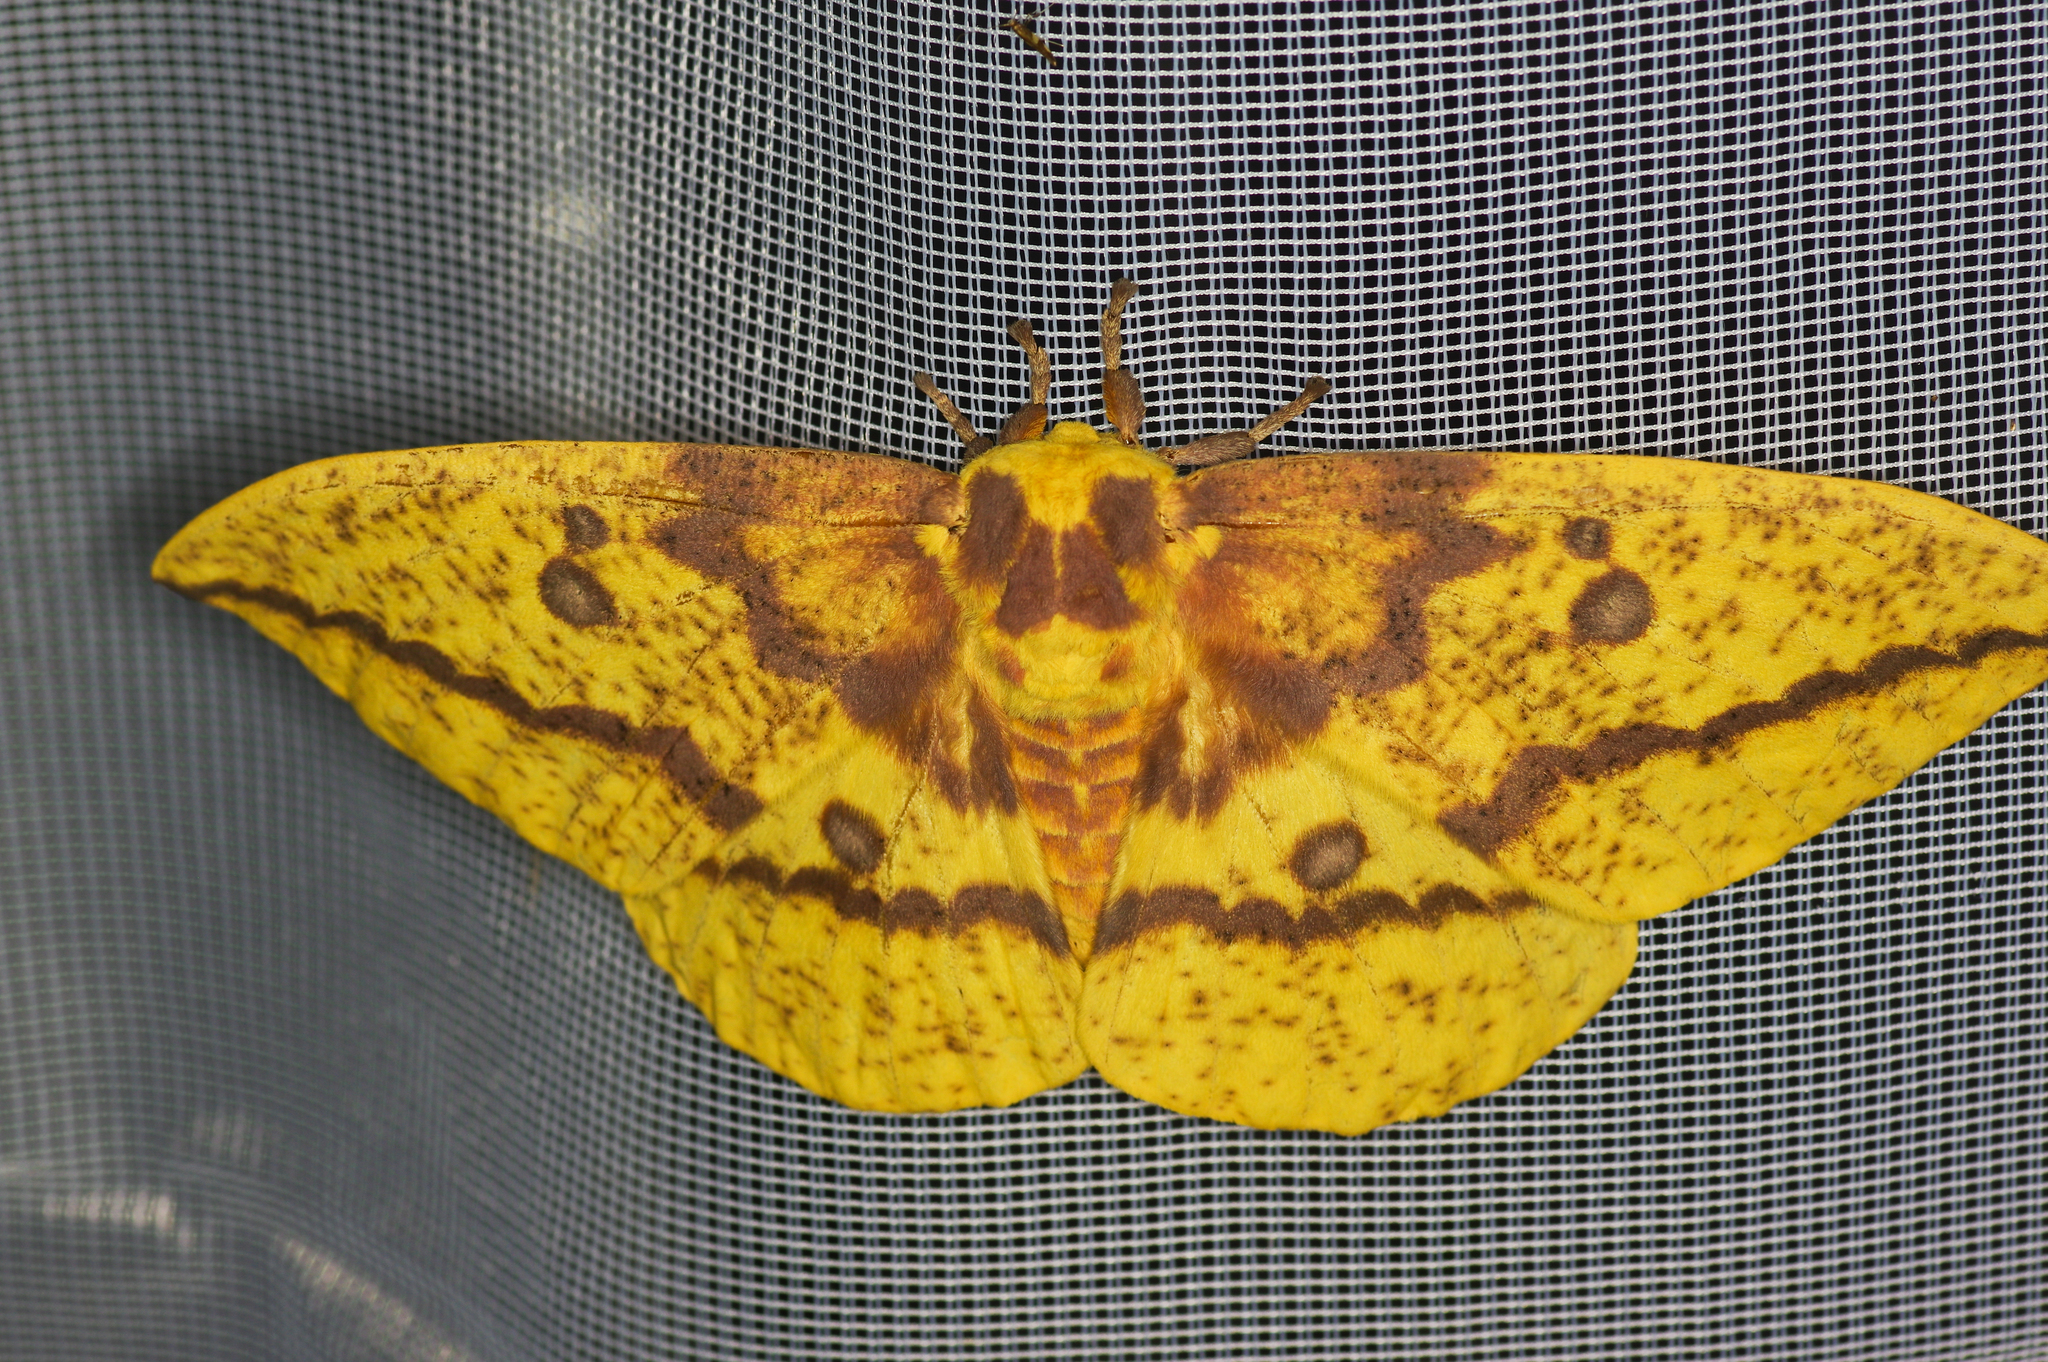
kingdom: Animalia
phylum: Arthropoda
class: Insecta
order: Lepidoptera
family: Saturniidae
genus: Eacles
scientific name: Eacles imperialis
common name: Imperial moth
